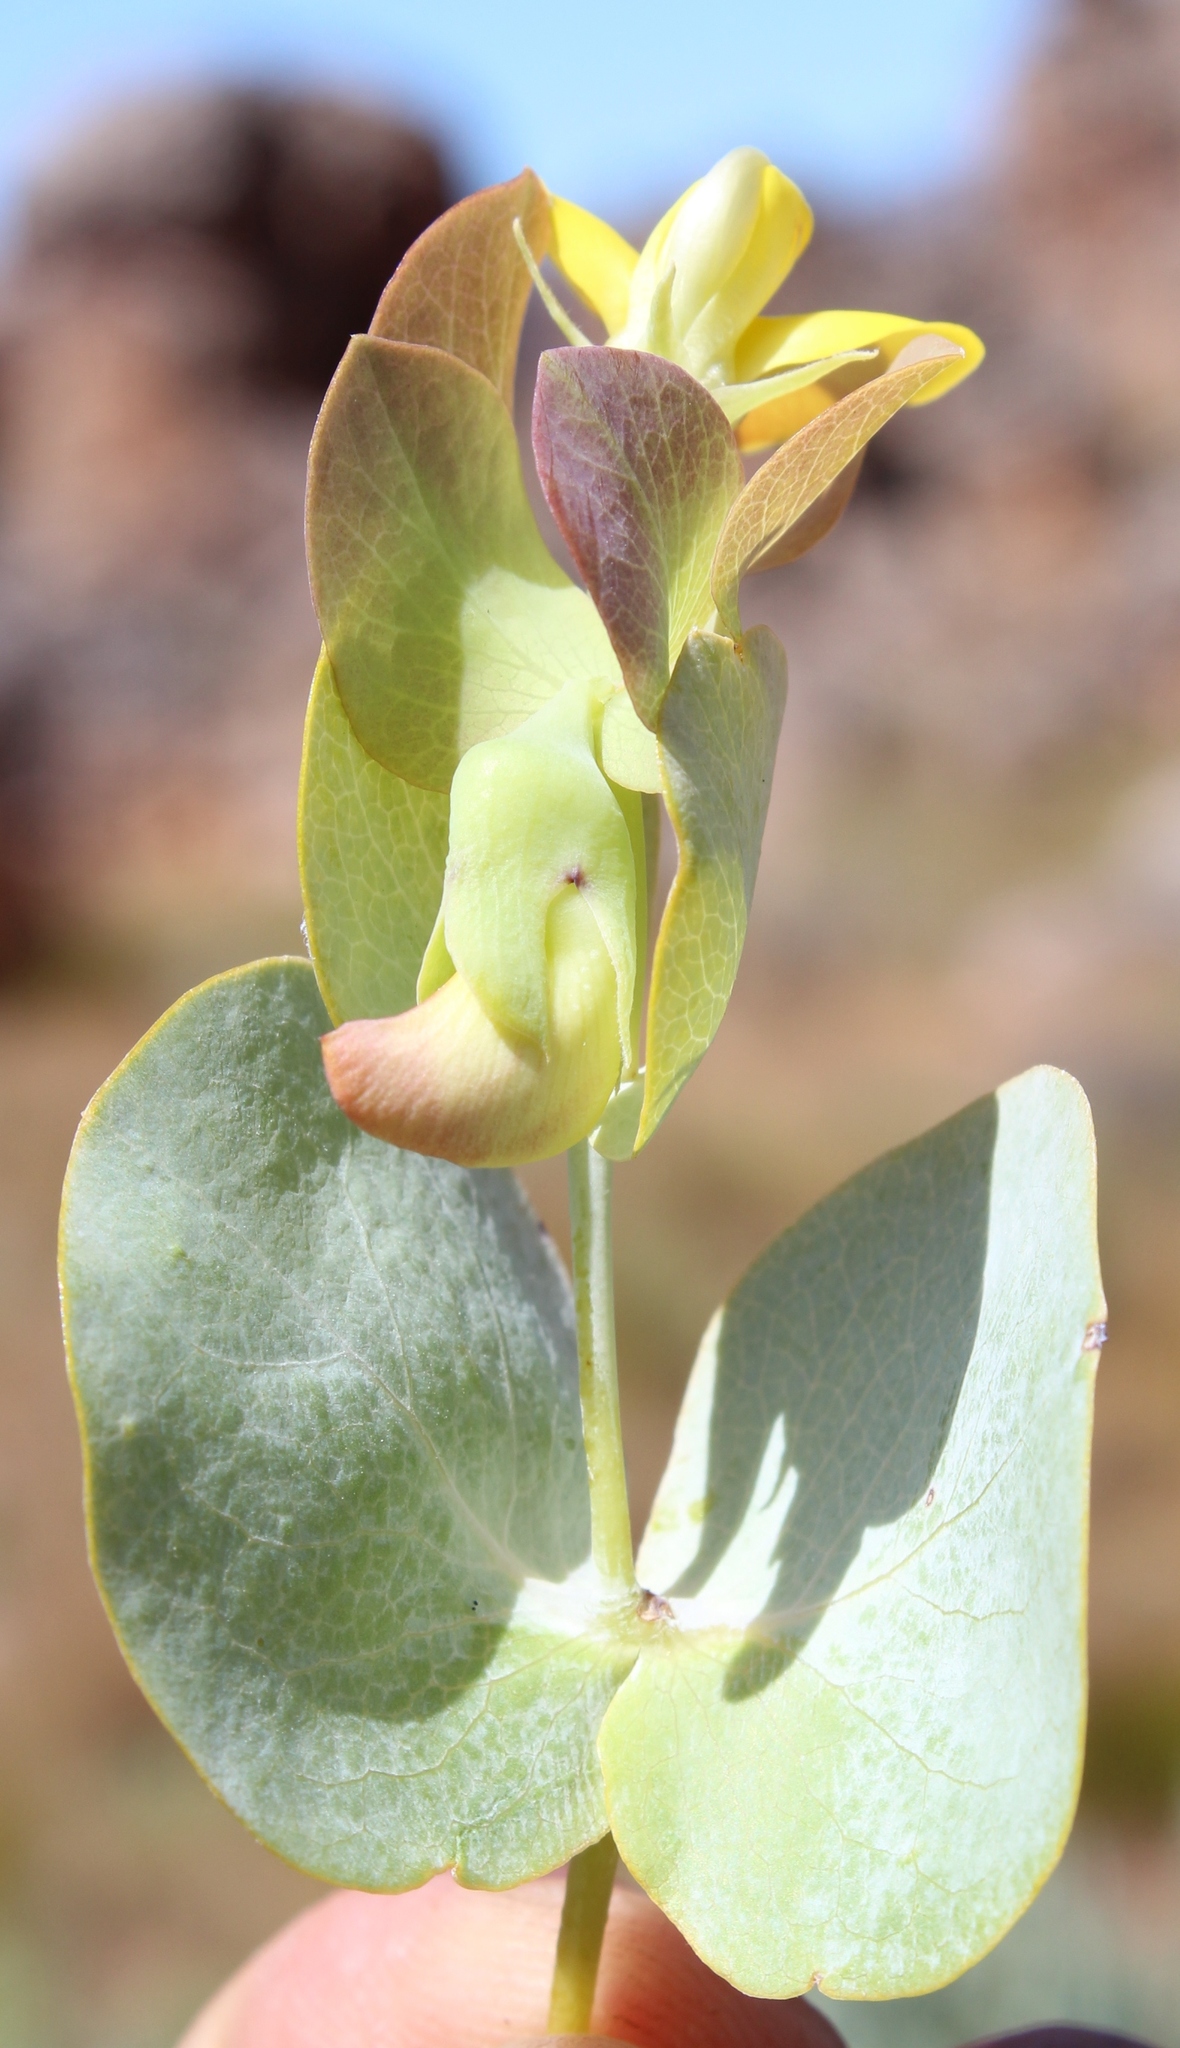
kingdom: Plantae
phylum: Tracheophyta
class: Magnoliopsida
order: Fabales
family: Fabaceae
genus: Rafnia
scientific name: Rafnia amplexicaulis
